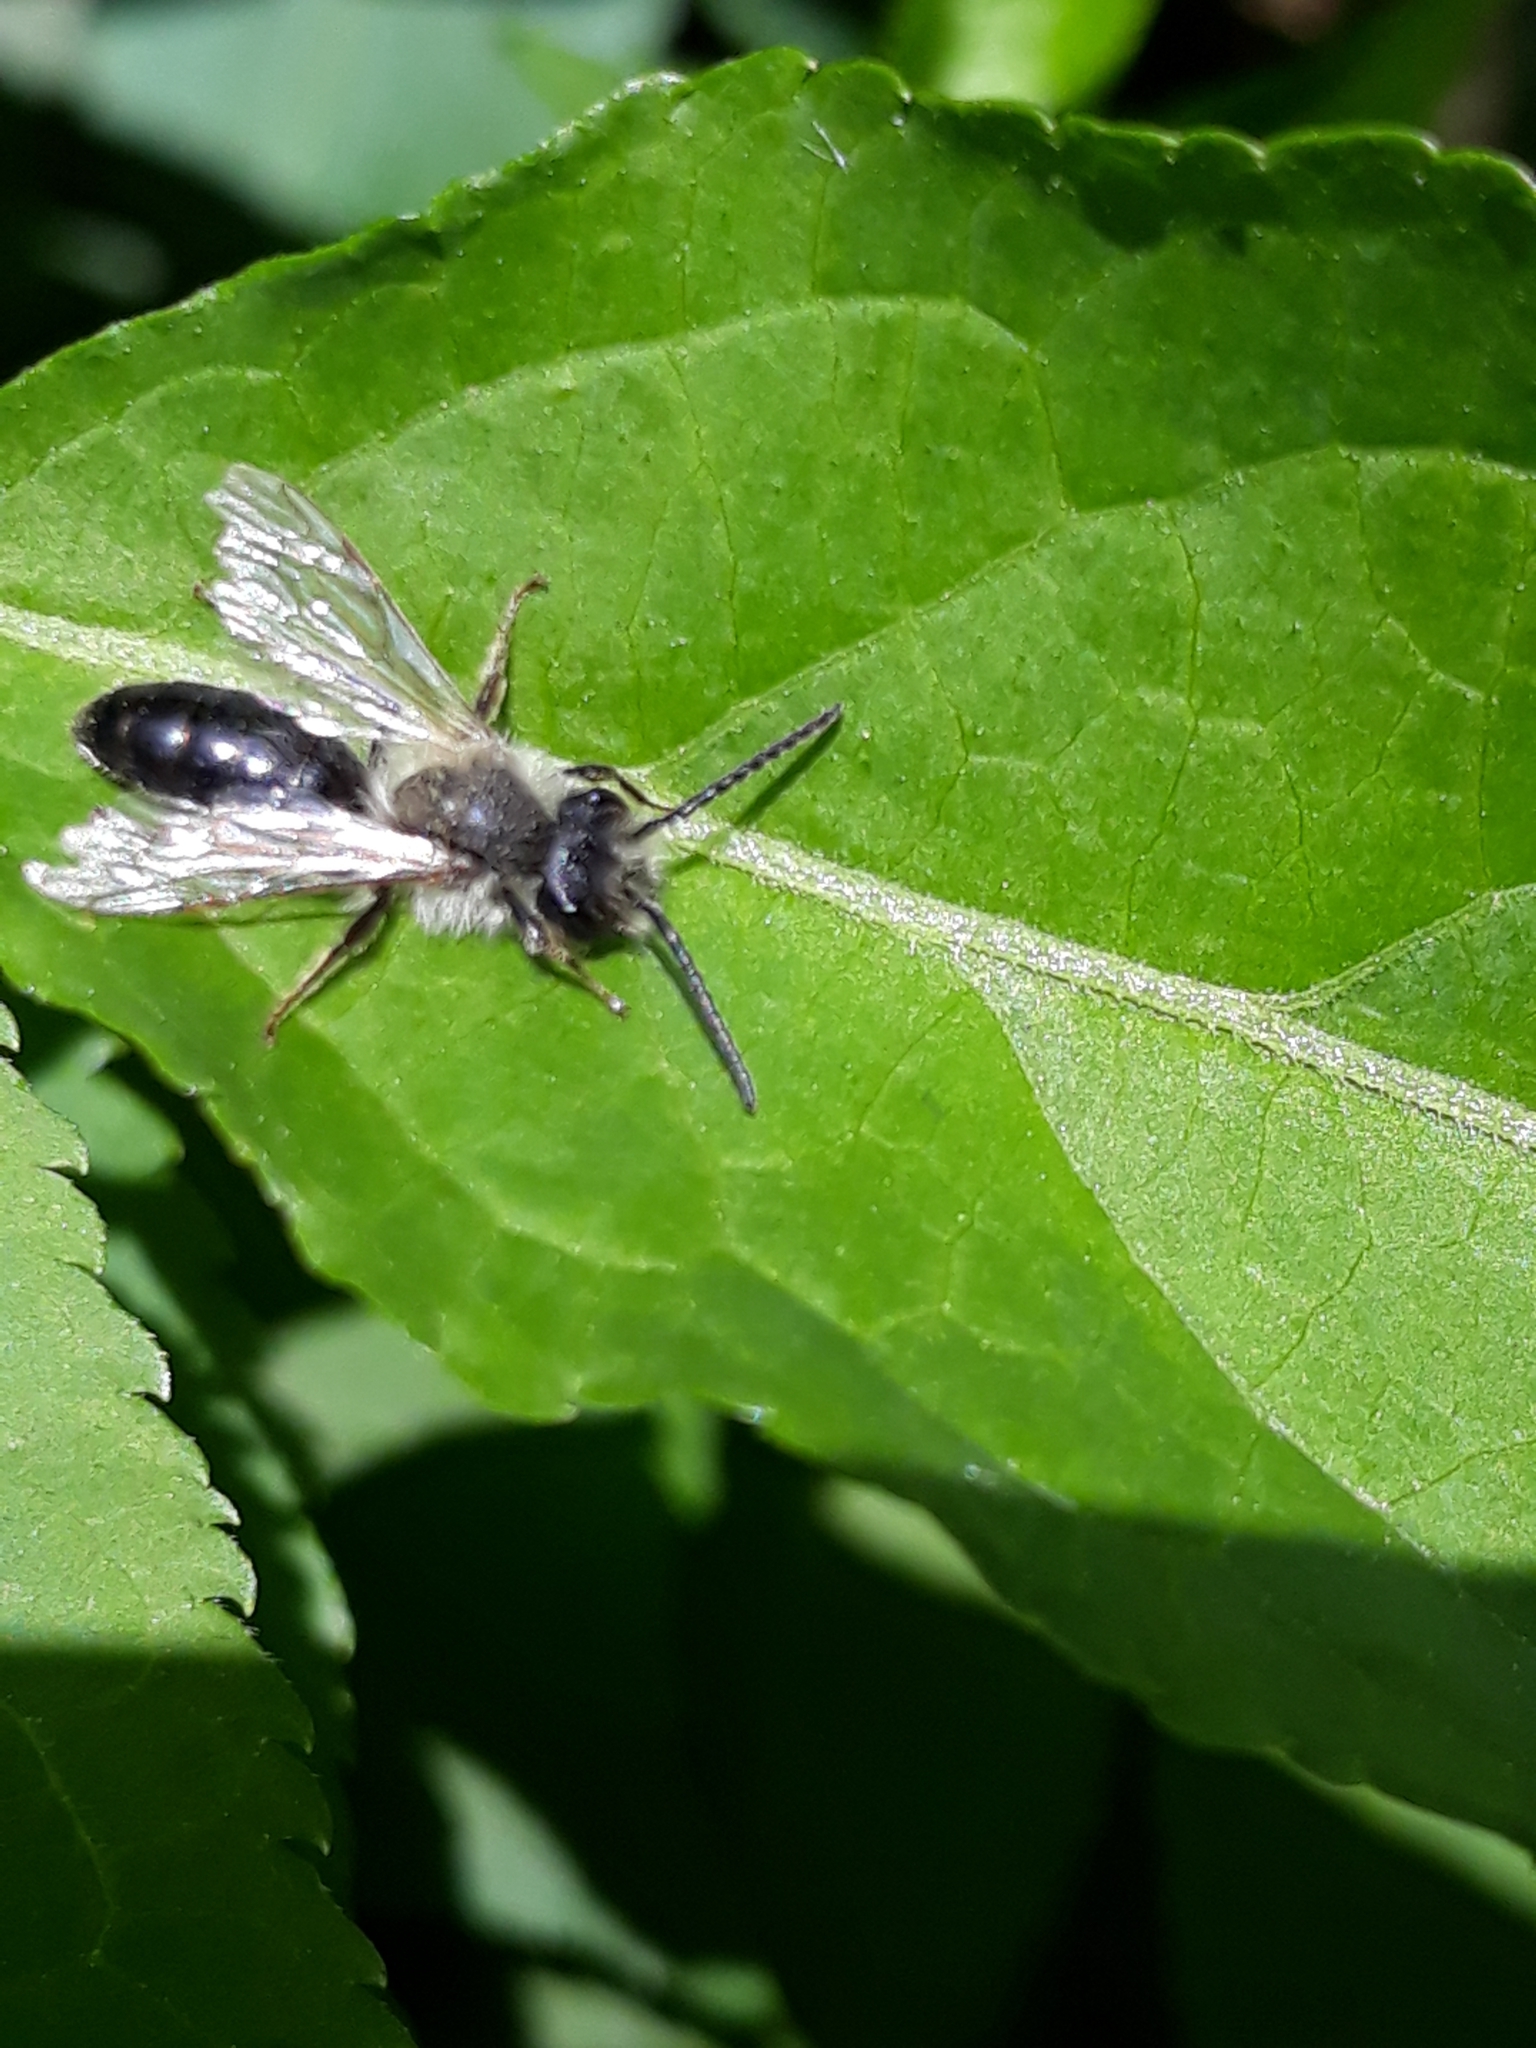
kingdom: Animalia
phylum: Arthropoda
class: Insecta
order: Hymenoptera
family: Andrenidae
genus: Andrena
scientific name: Andrena cineraria
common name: Ashy mining bee
